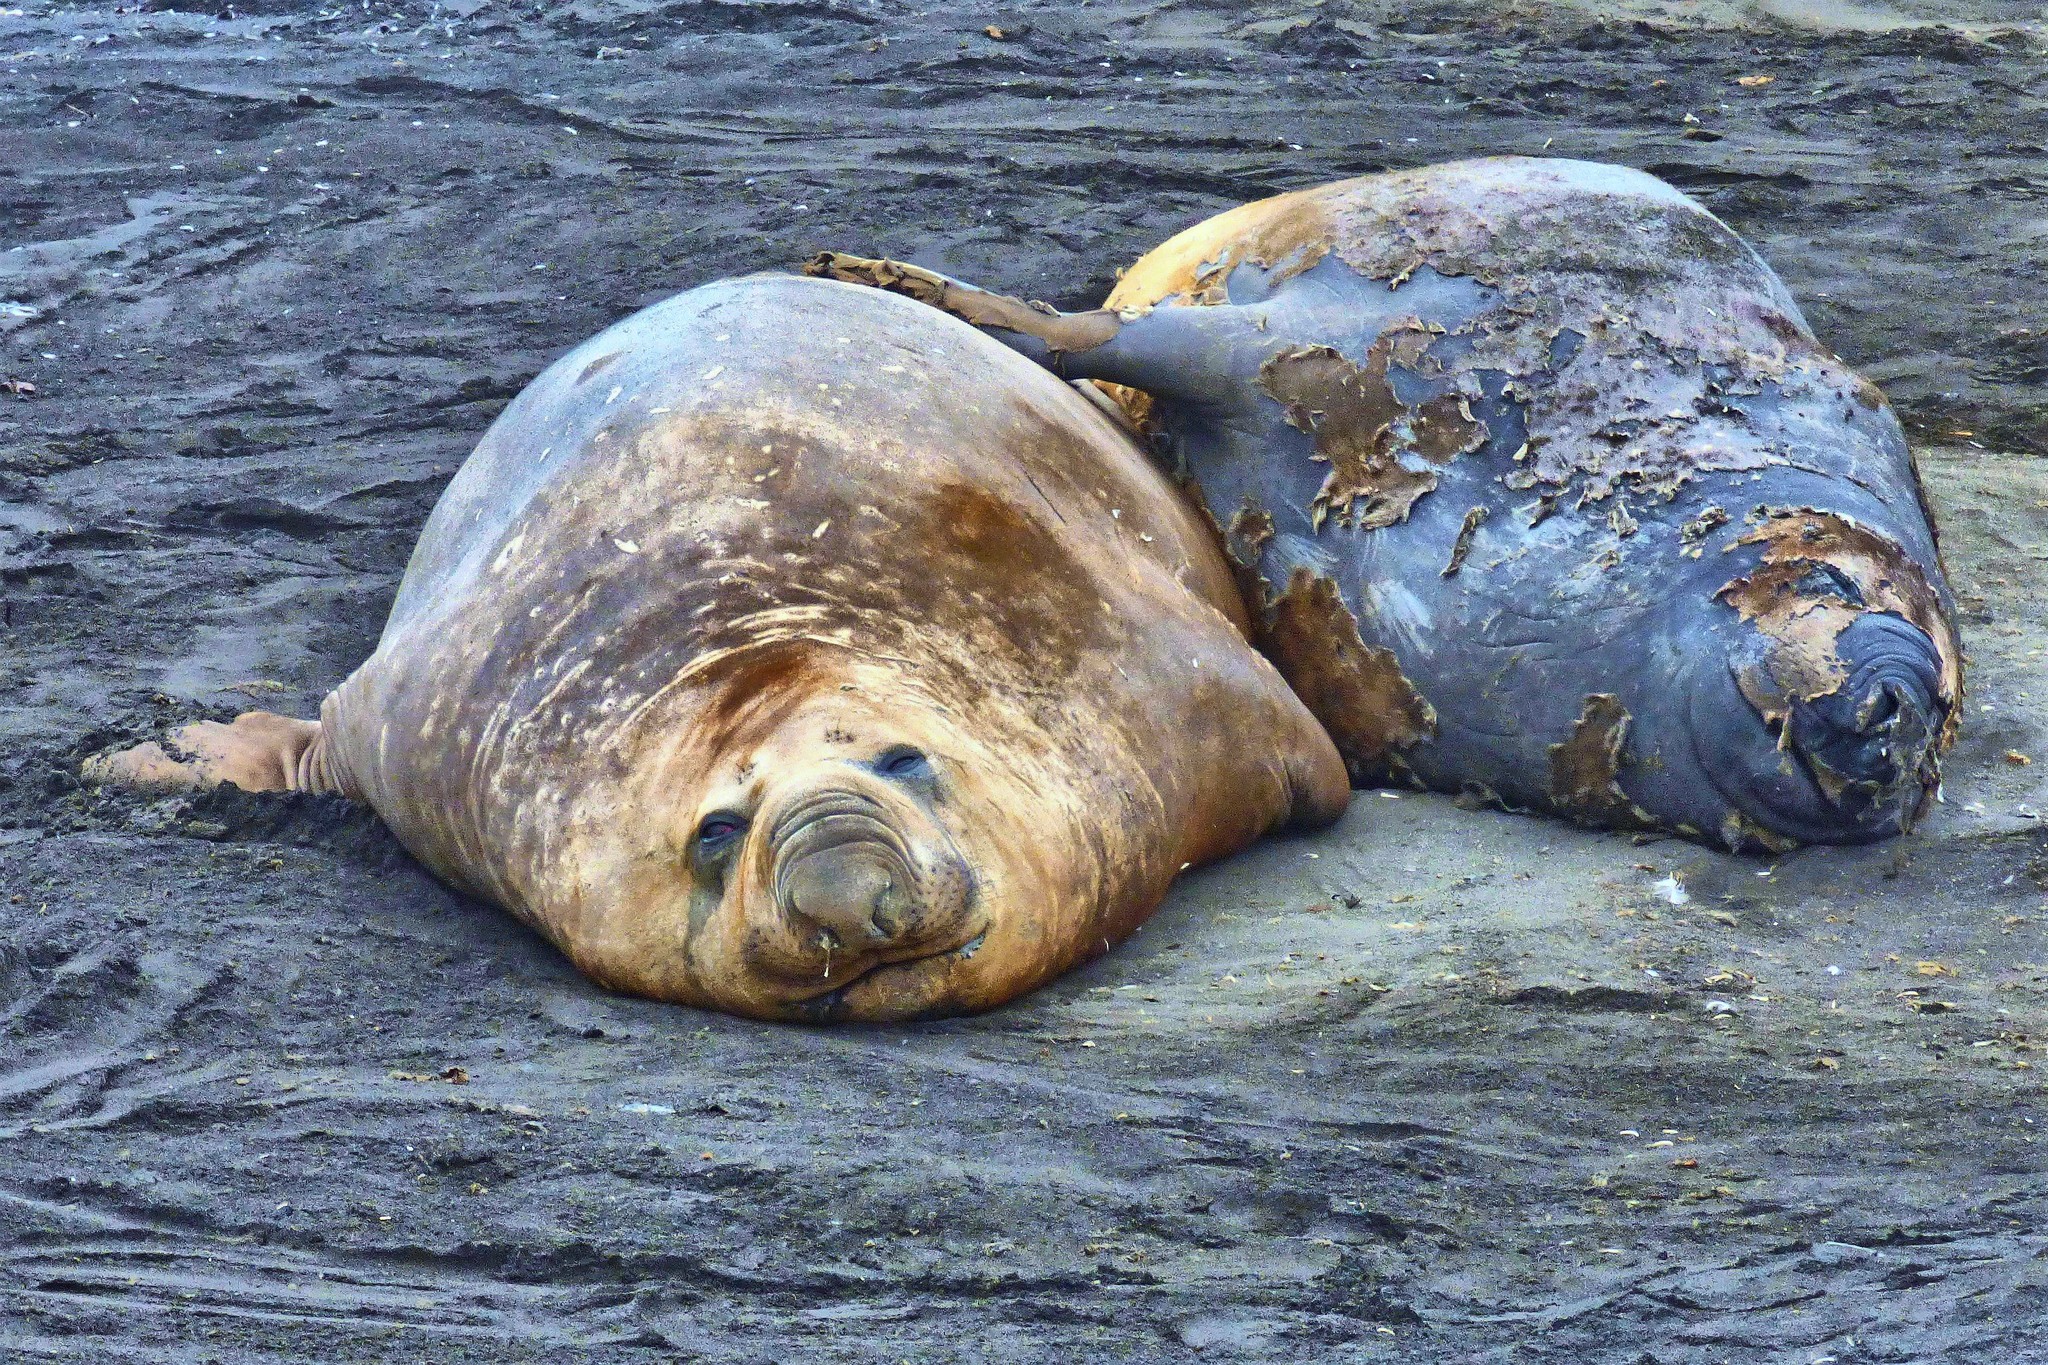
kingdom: Animalia
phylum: Chordata
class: Mammalia
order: Carnivora
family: Phocidae
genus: Mirounga
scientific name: Mirounga leonina
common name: Southern elephant seal
